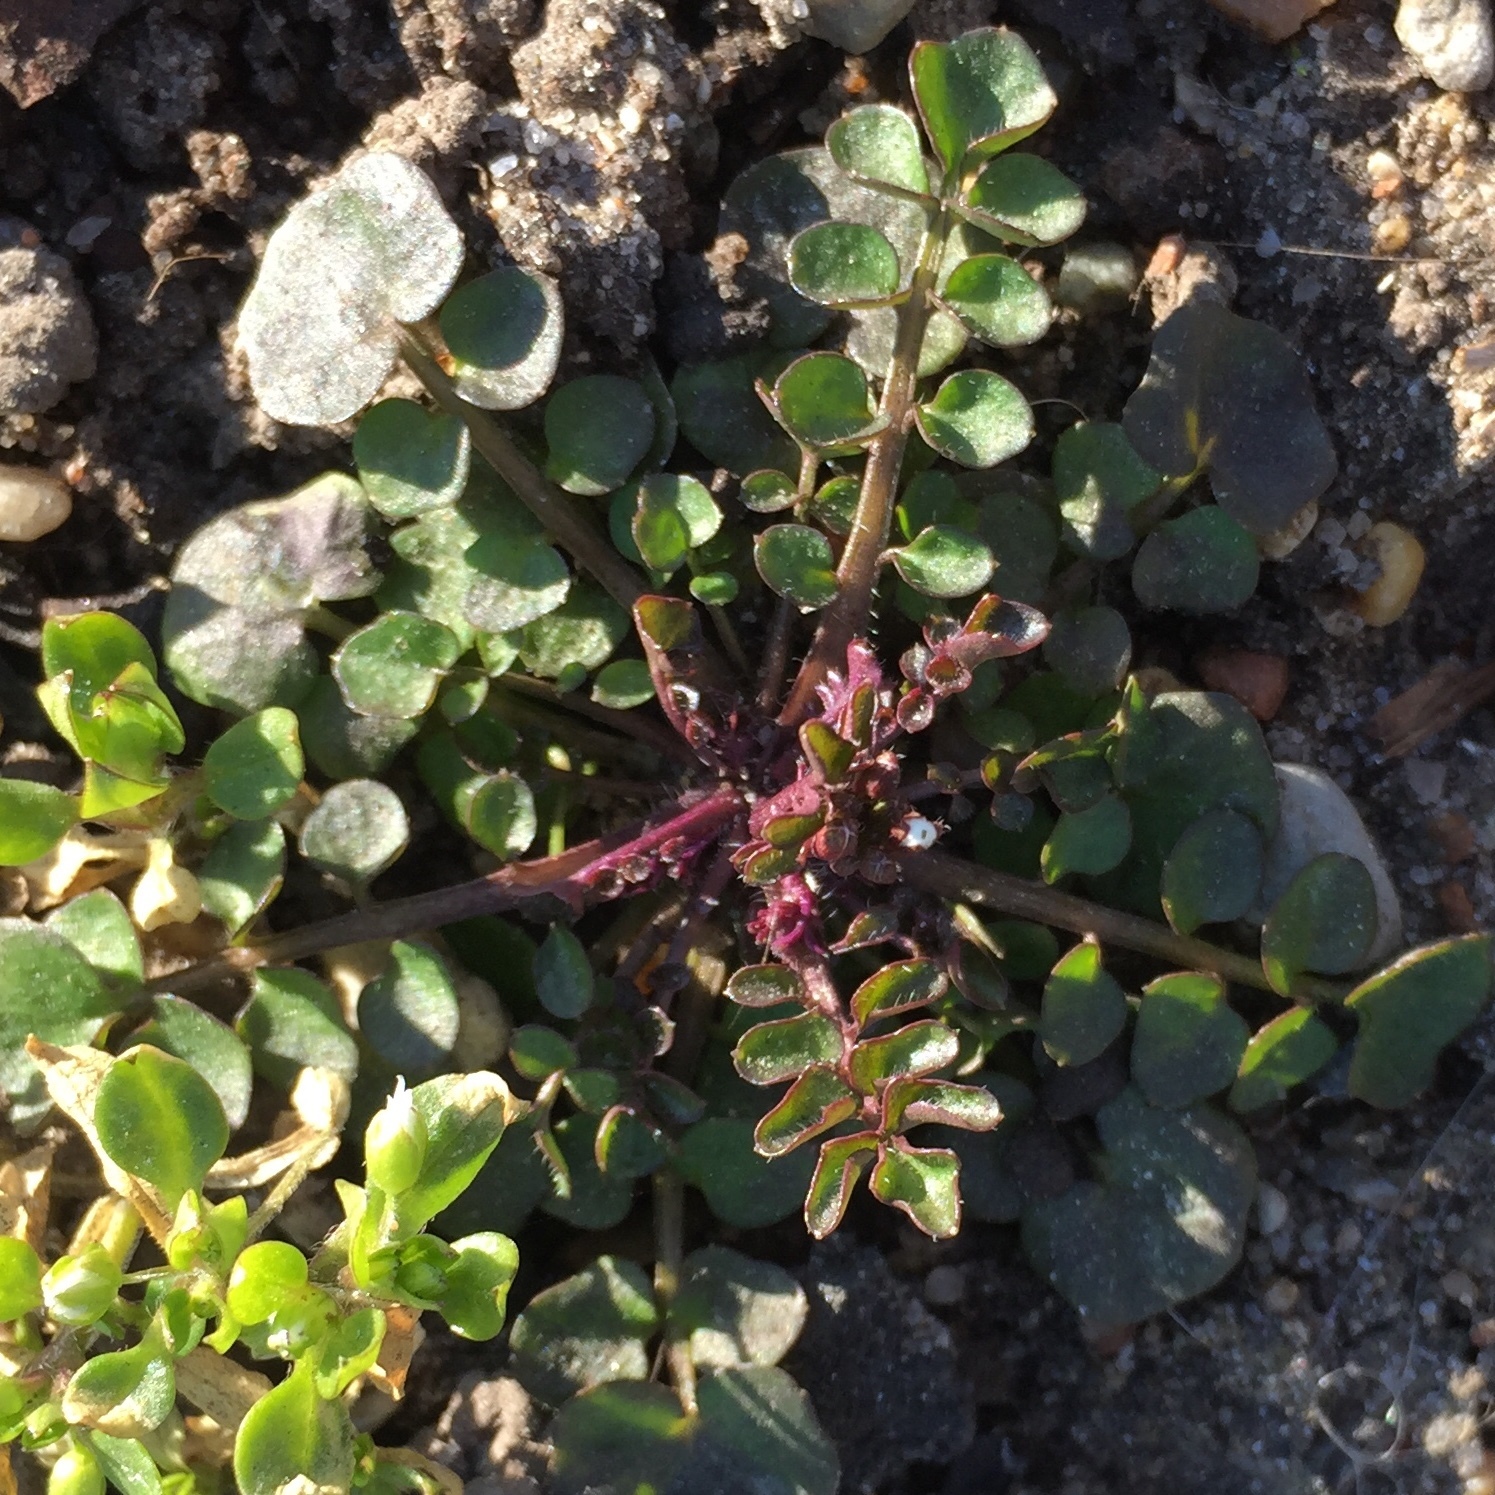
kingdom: Plantae
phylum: Tracheophyta
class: Magnoliopsida
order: Brassicales
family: Brassicaceae
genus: Cardamine
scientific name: Cardamine hirsuta
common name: Hairy bittercress
